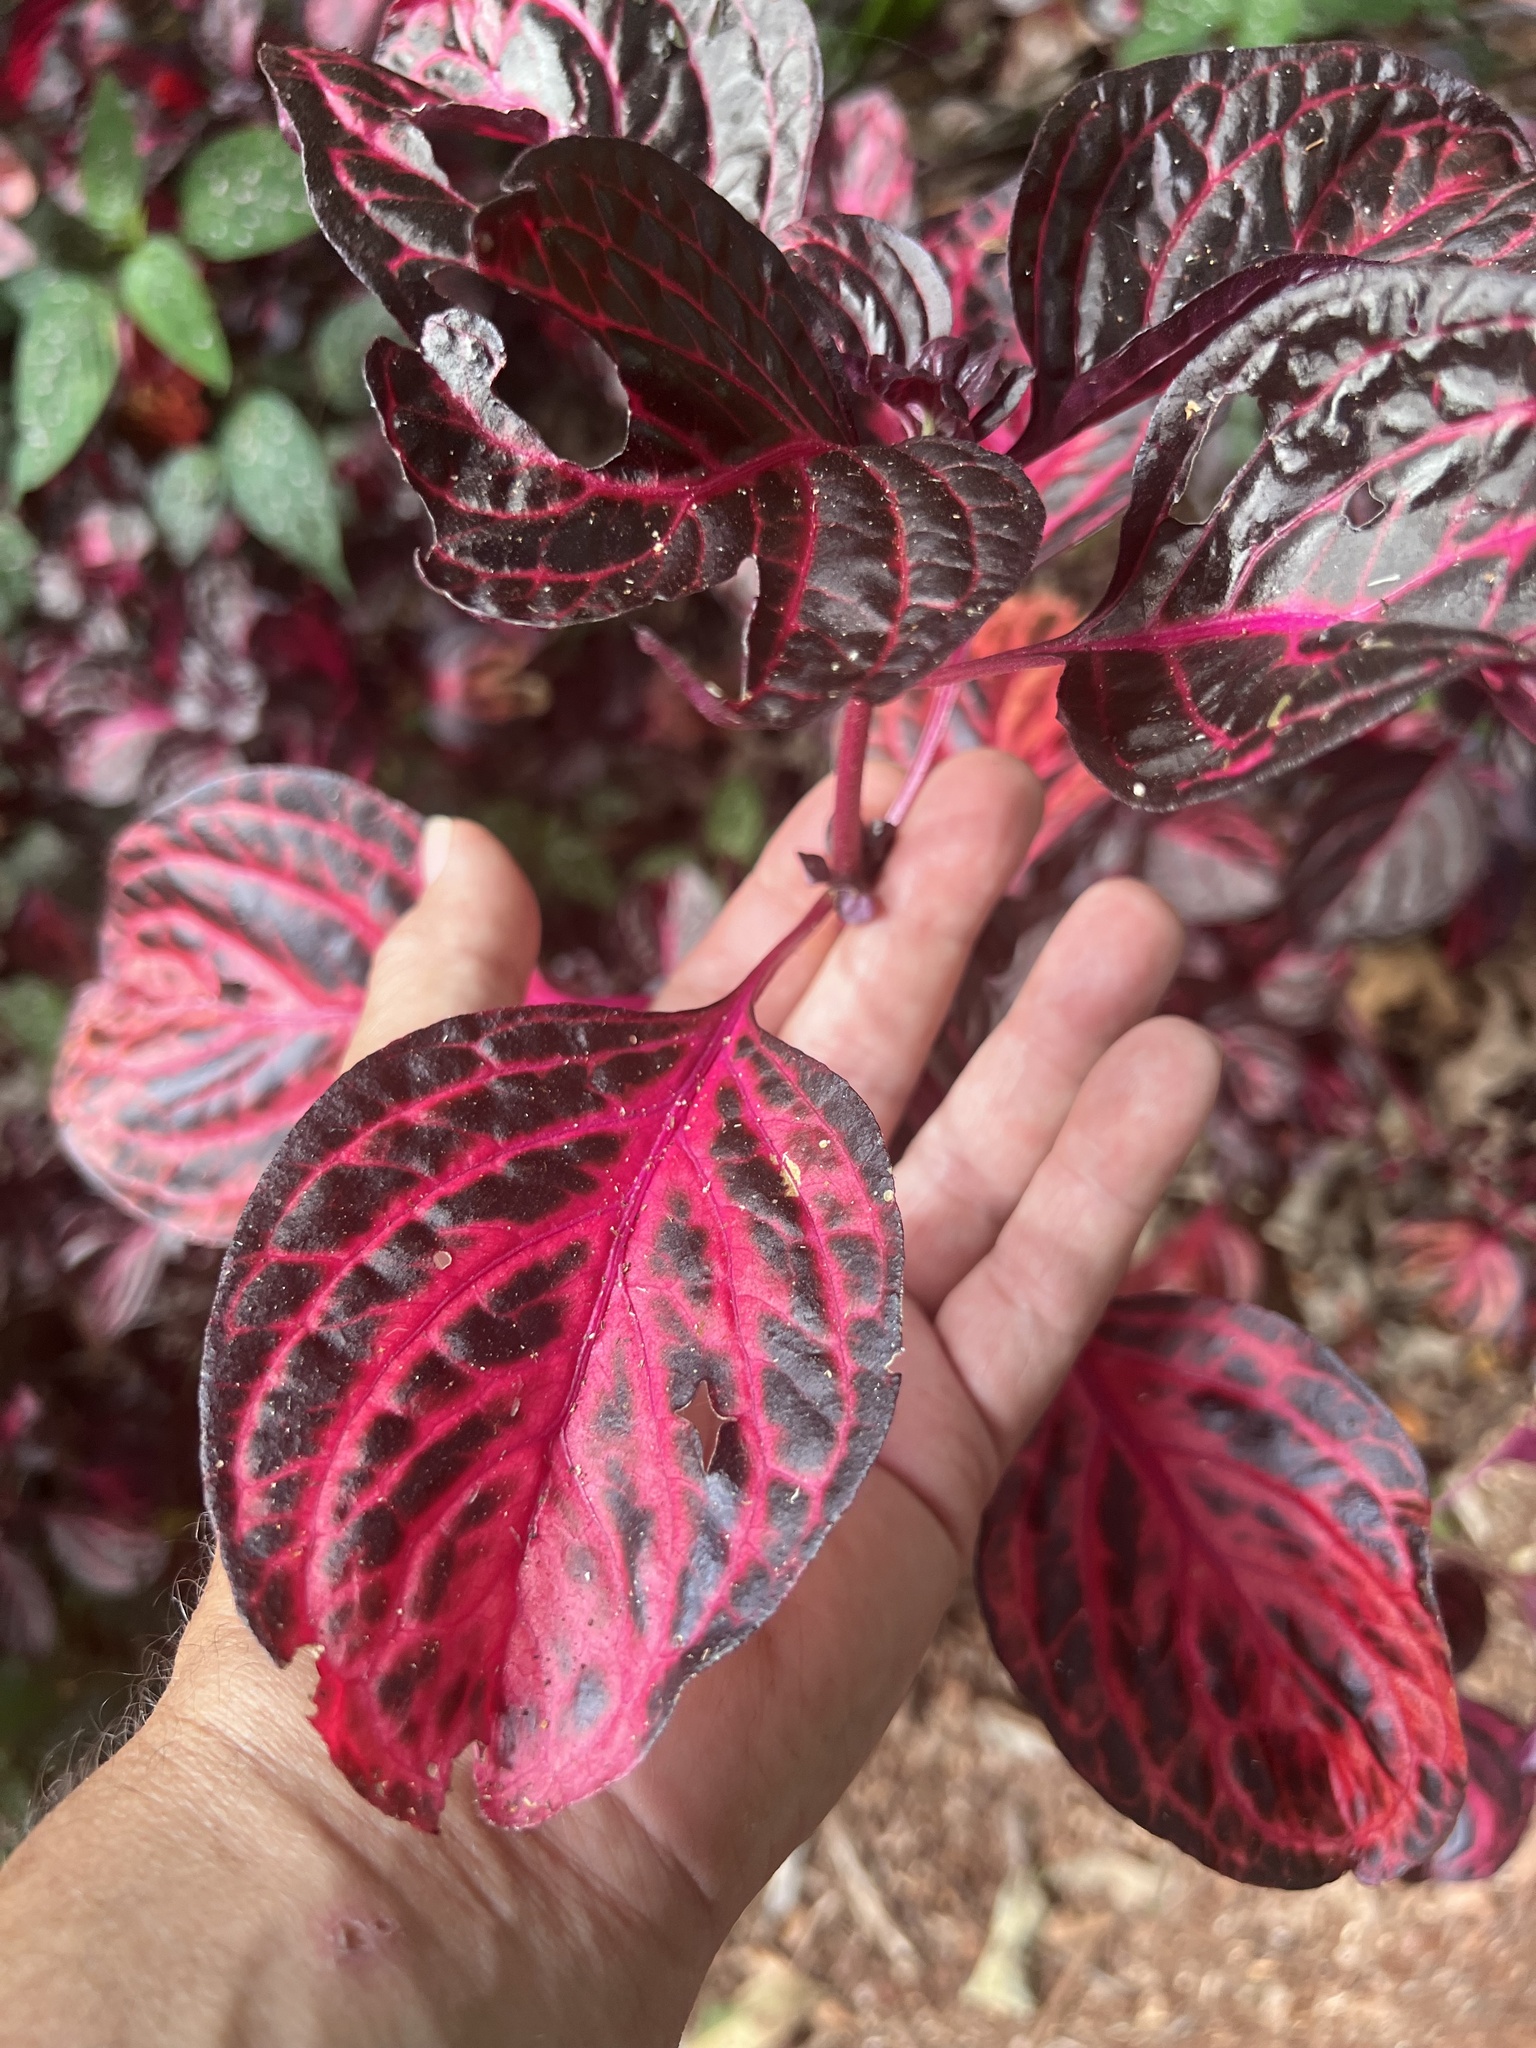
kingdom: Plantae
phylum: Tracheophyta
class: Magnoliopsida
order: Caryophyllales
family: Amaranthaceae
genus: Iresine
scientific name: Iresine diffusa
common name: Juba's-bush
